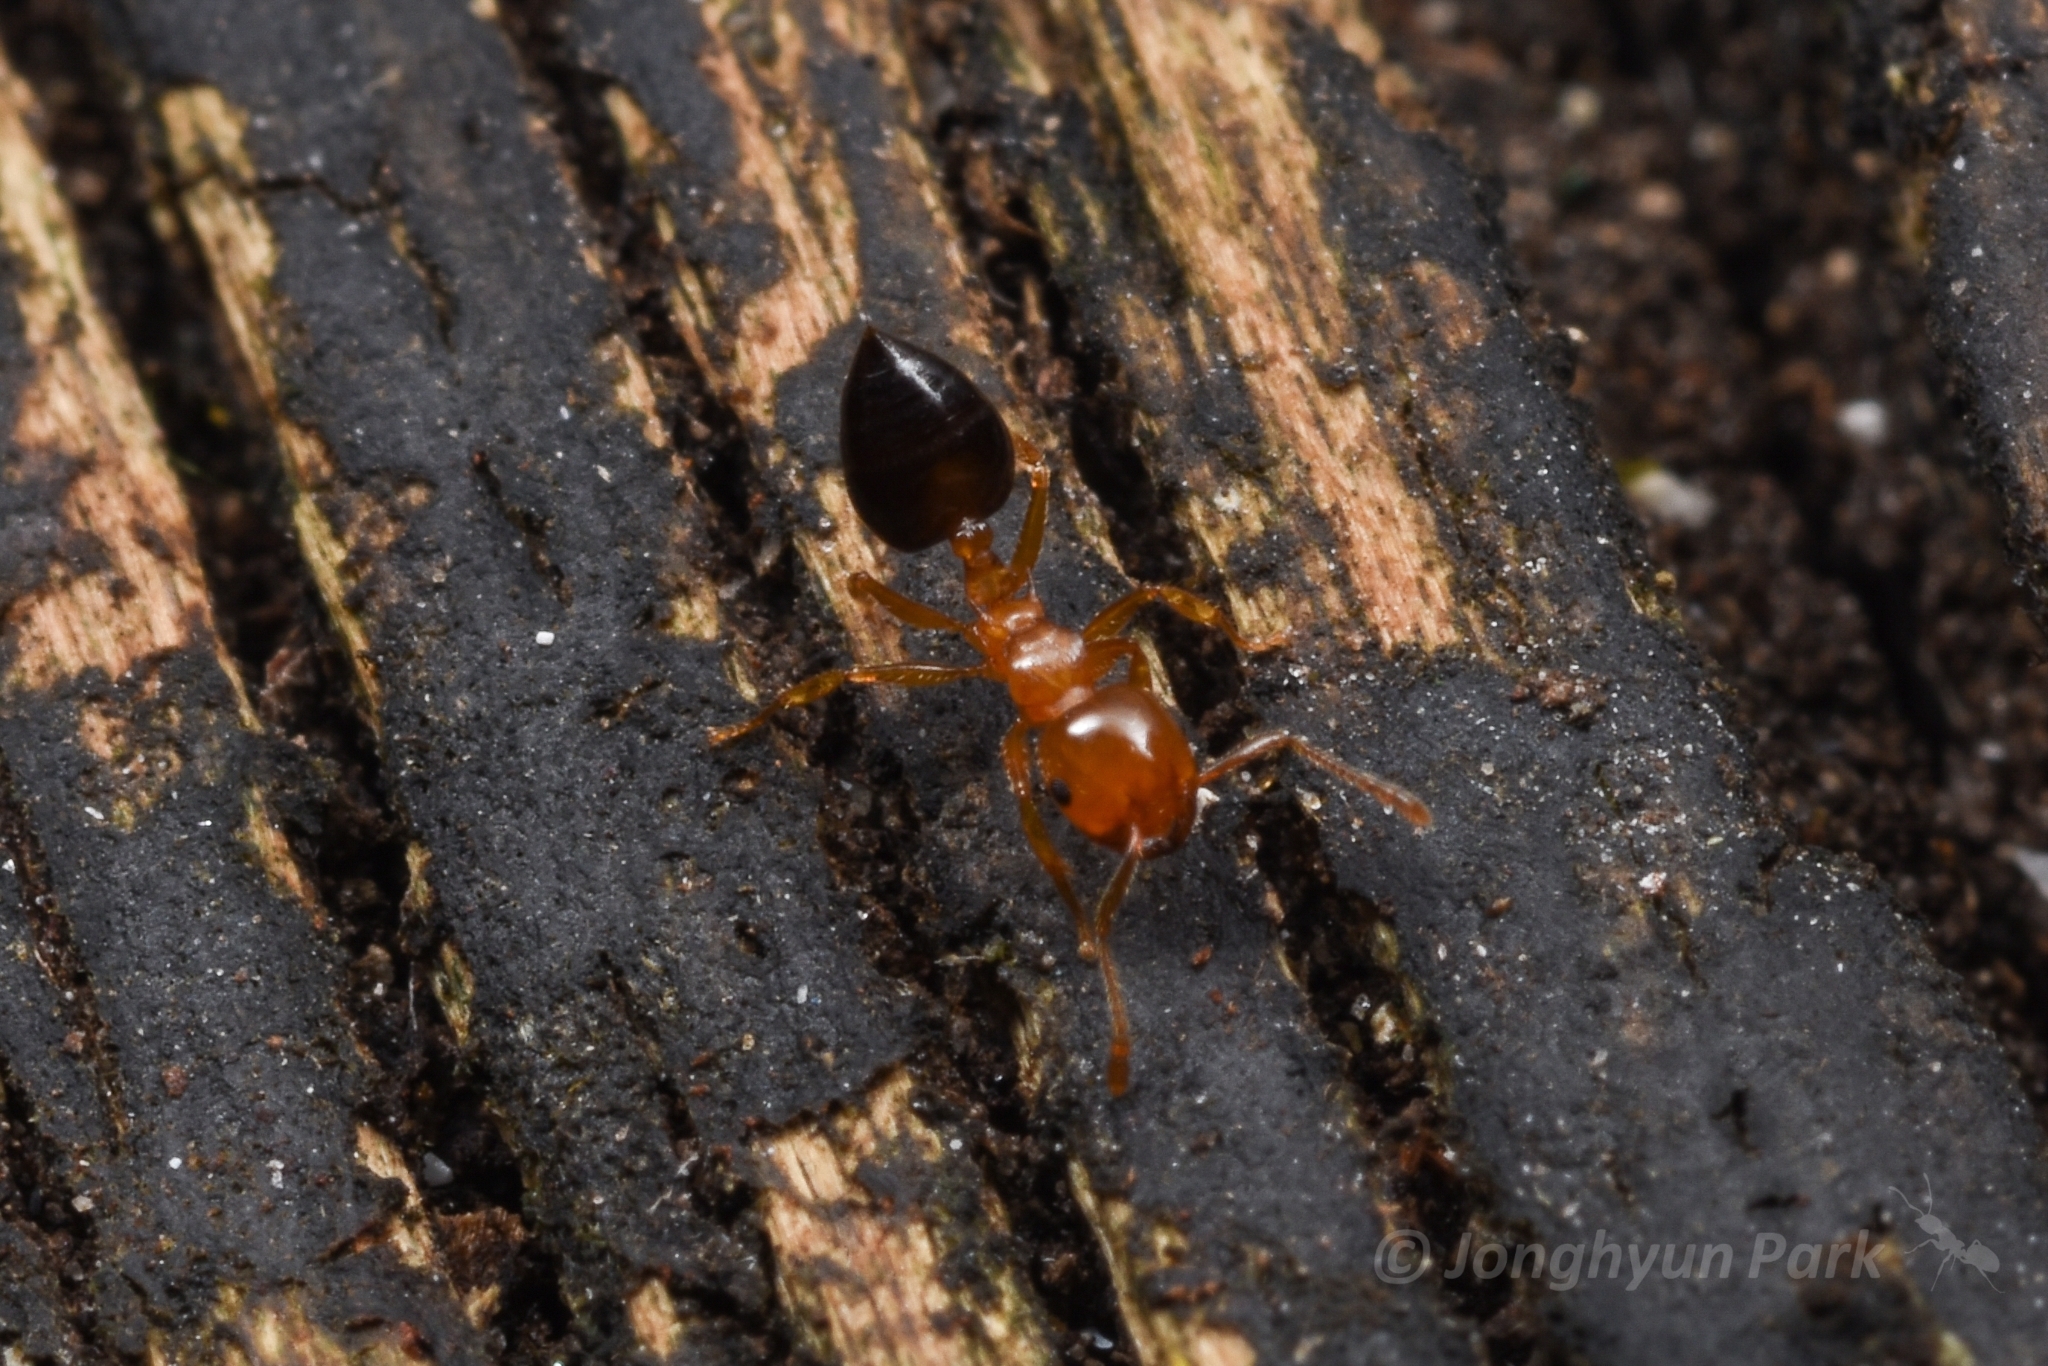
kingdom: Animalia
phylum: Arthropoda
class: Insecta
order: Hymenoptera
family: Formicidae
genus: Crematogaster
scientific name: Crematogaster
